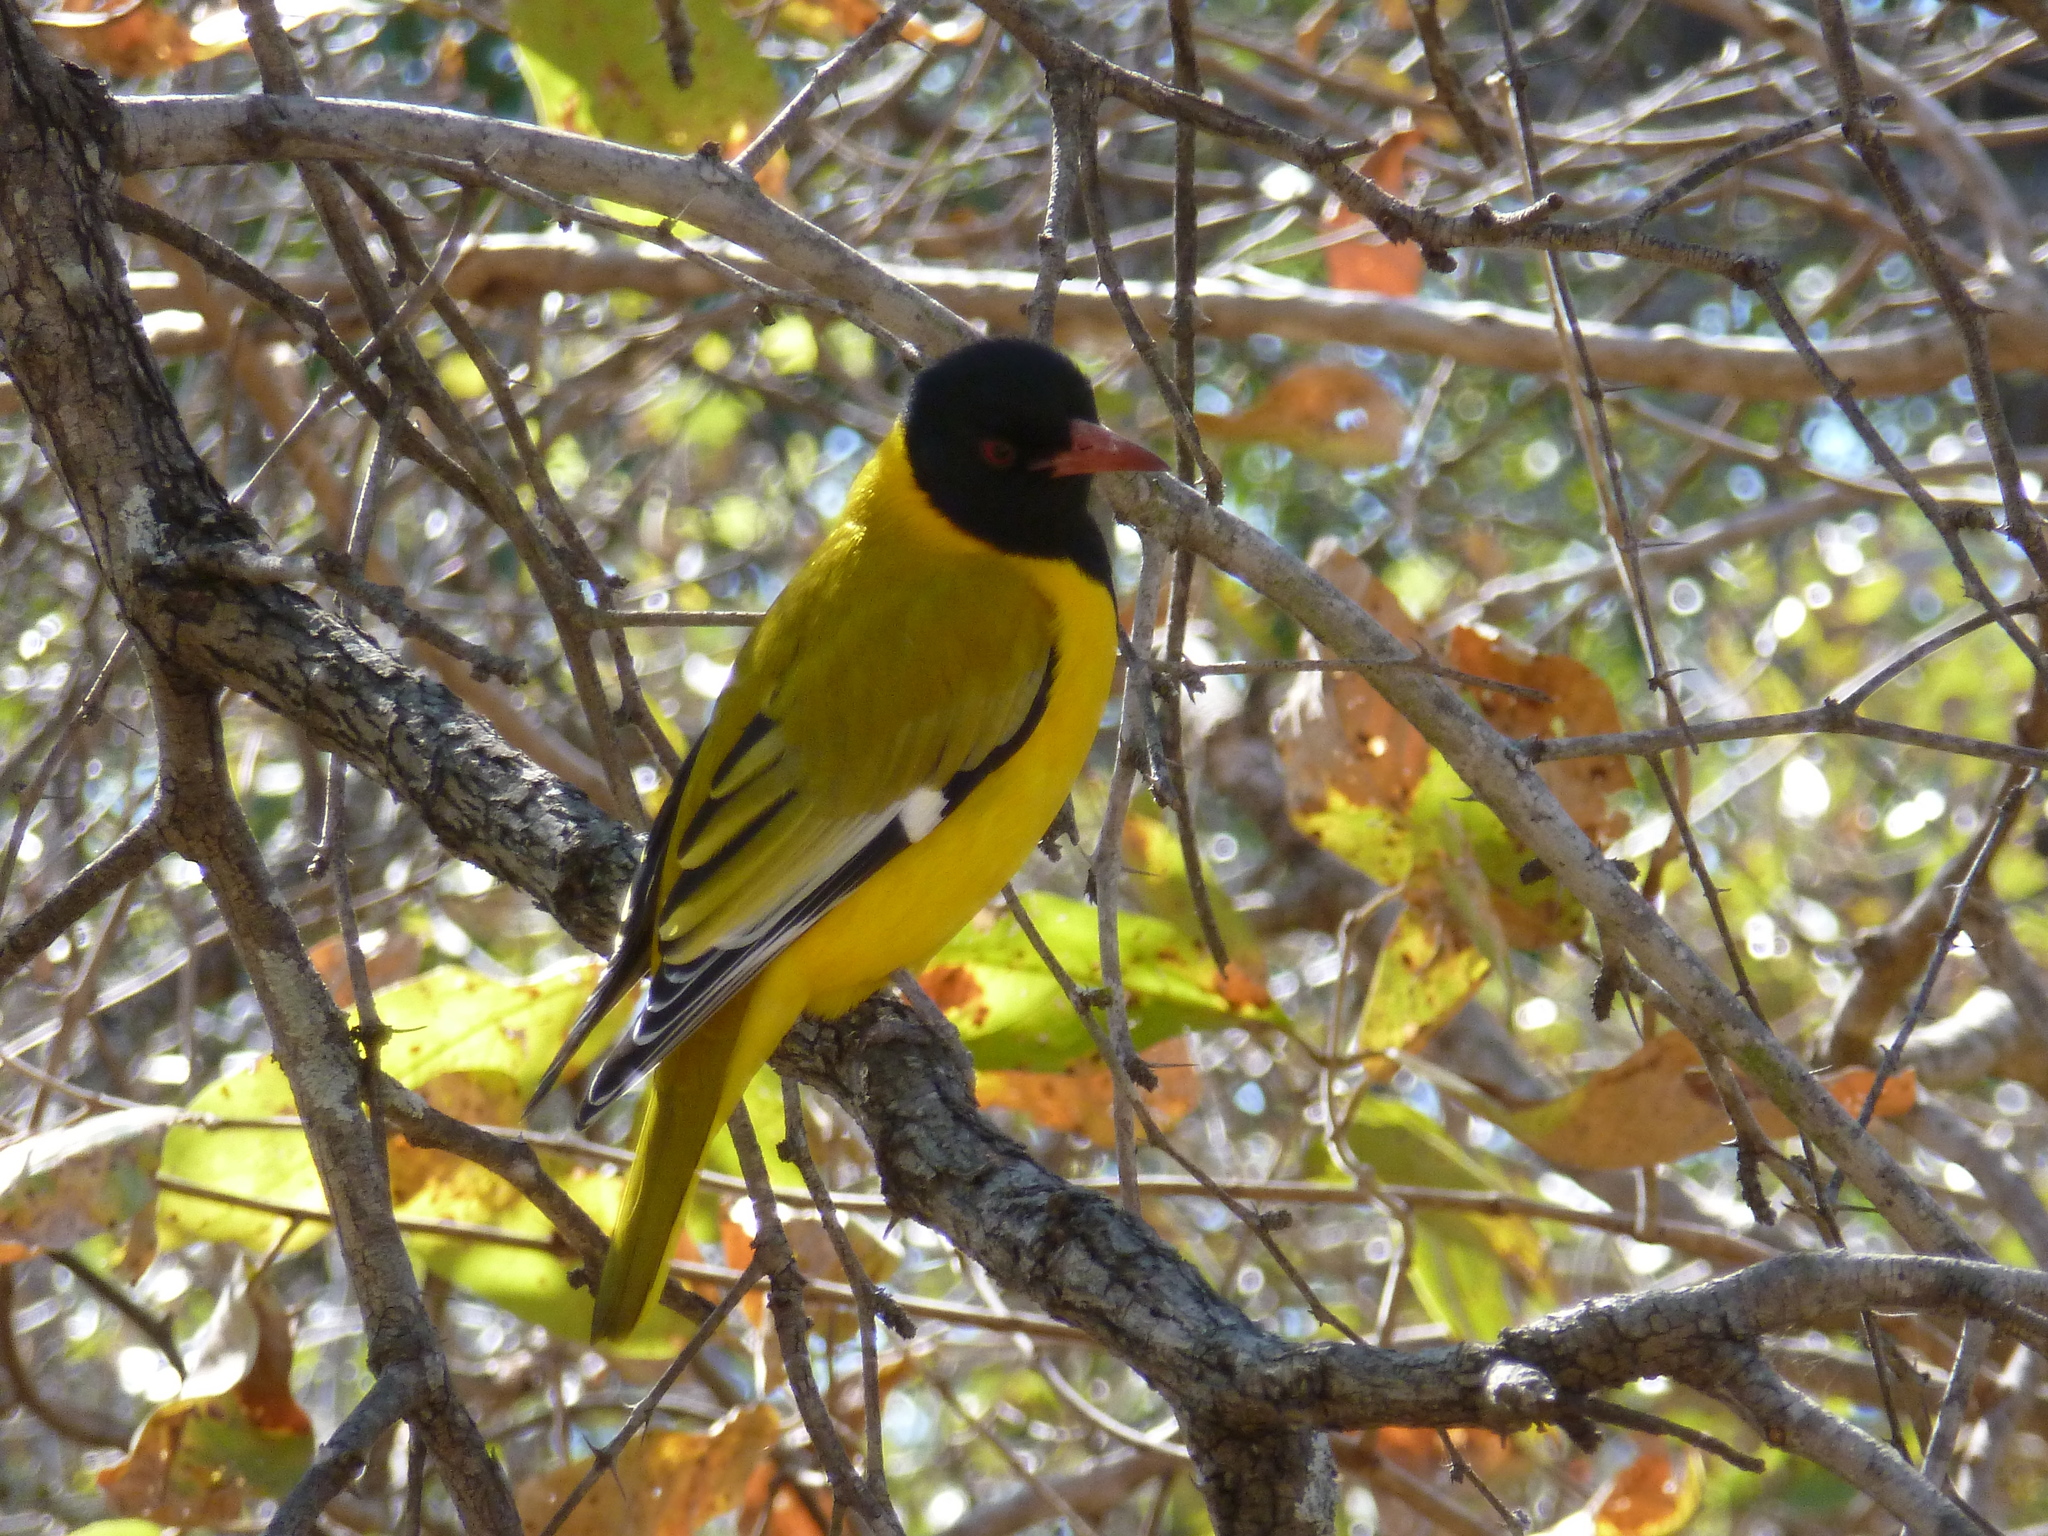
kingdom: Animalia
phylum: Chordata
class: Aves
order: Passeriformes
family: Oriolidae
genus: Oriolus
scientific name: Oriolus larvatus
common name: Black-headed oriole
